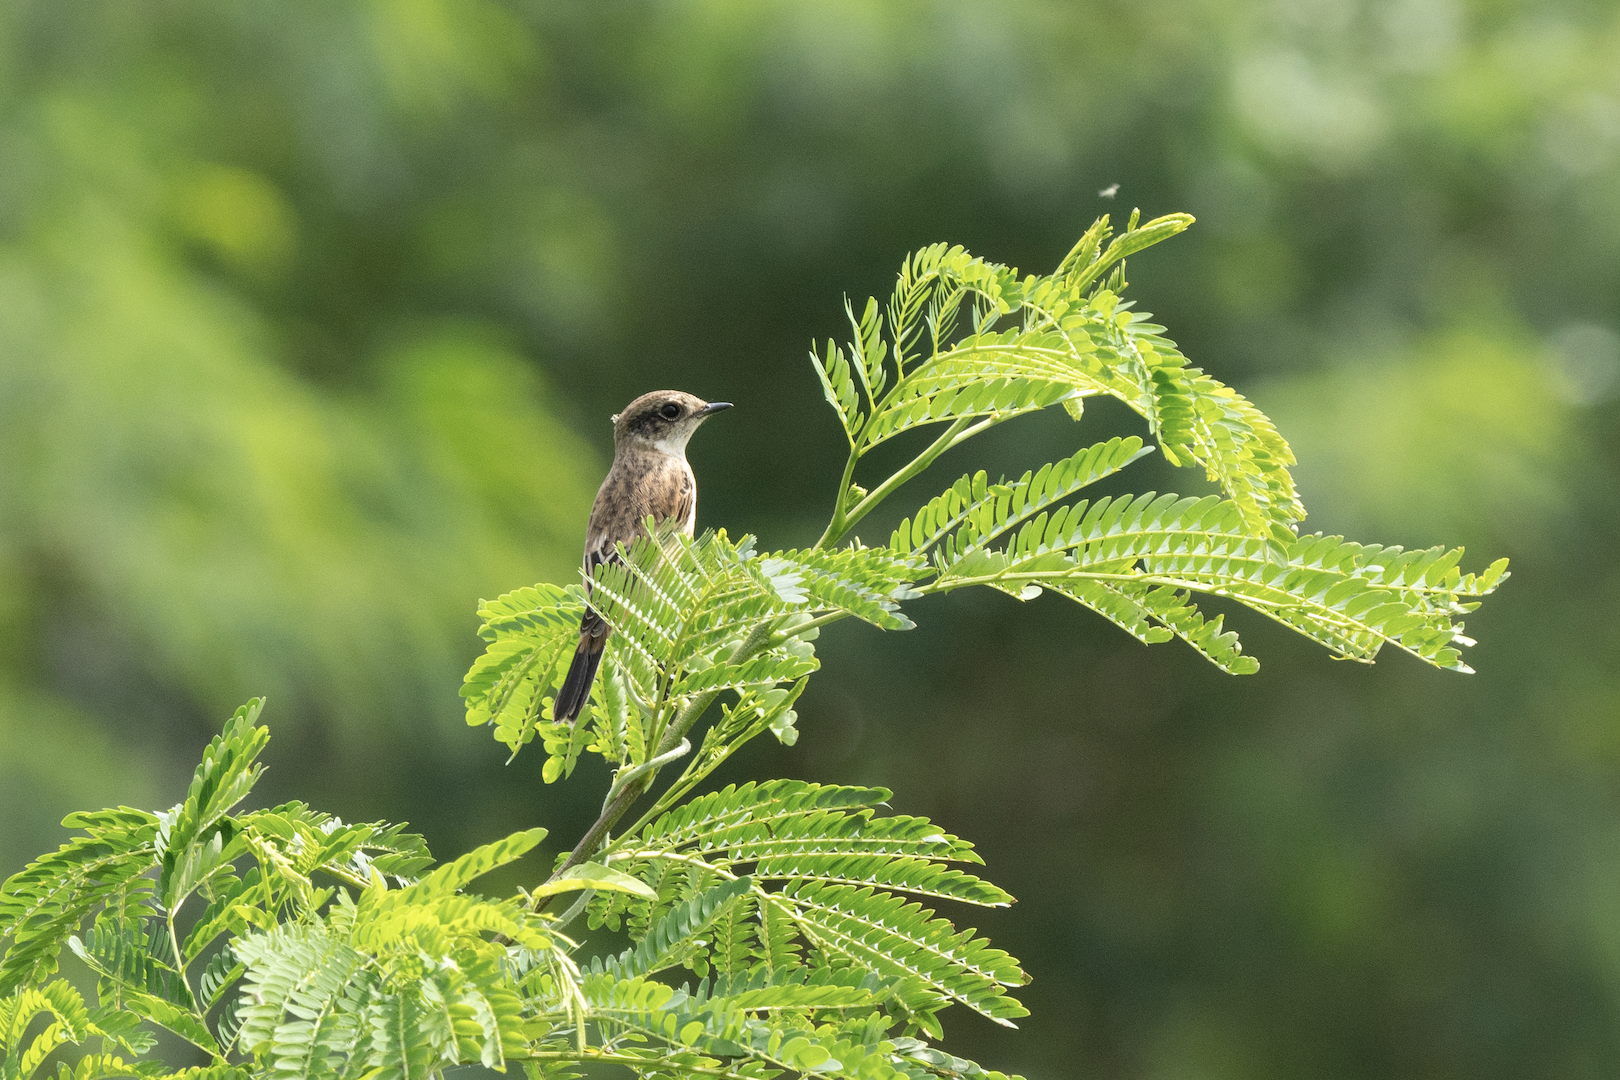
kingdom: Animalia
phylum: Chordata
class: Aves
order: Passeriformes
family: Muscicapidae
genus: Saxicola
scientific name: Saxicola stejnegeri
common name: Stejneger's stonechat
